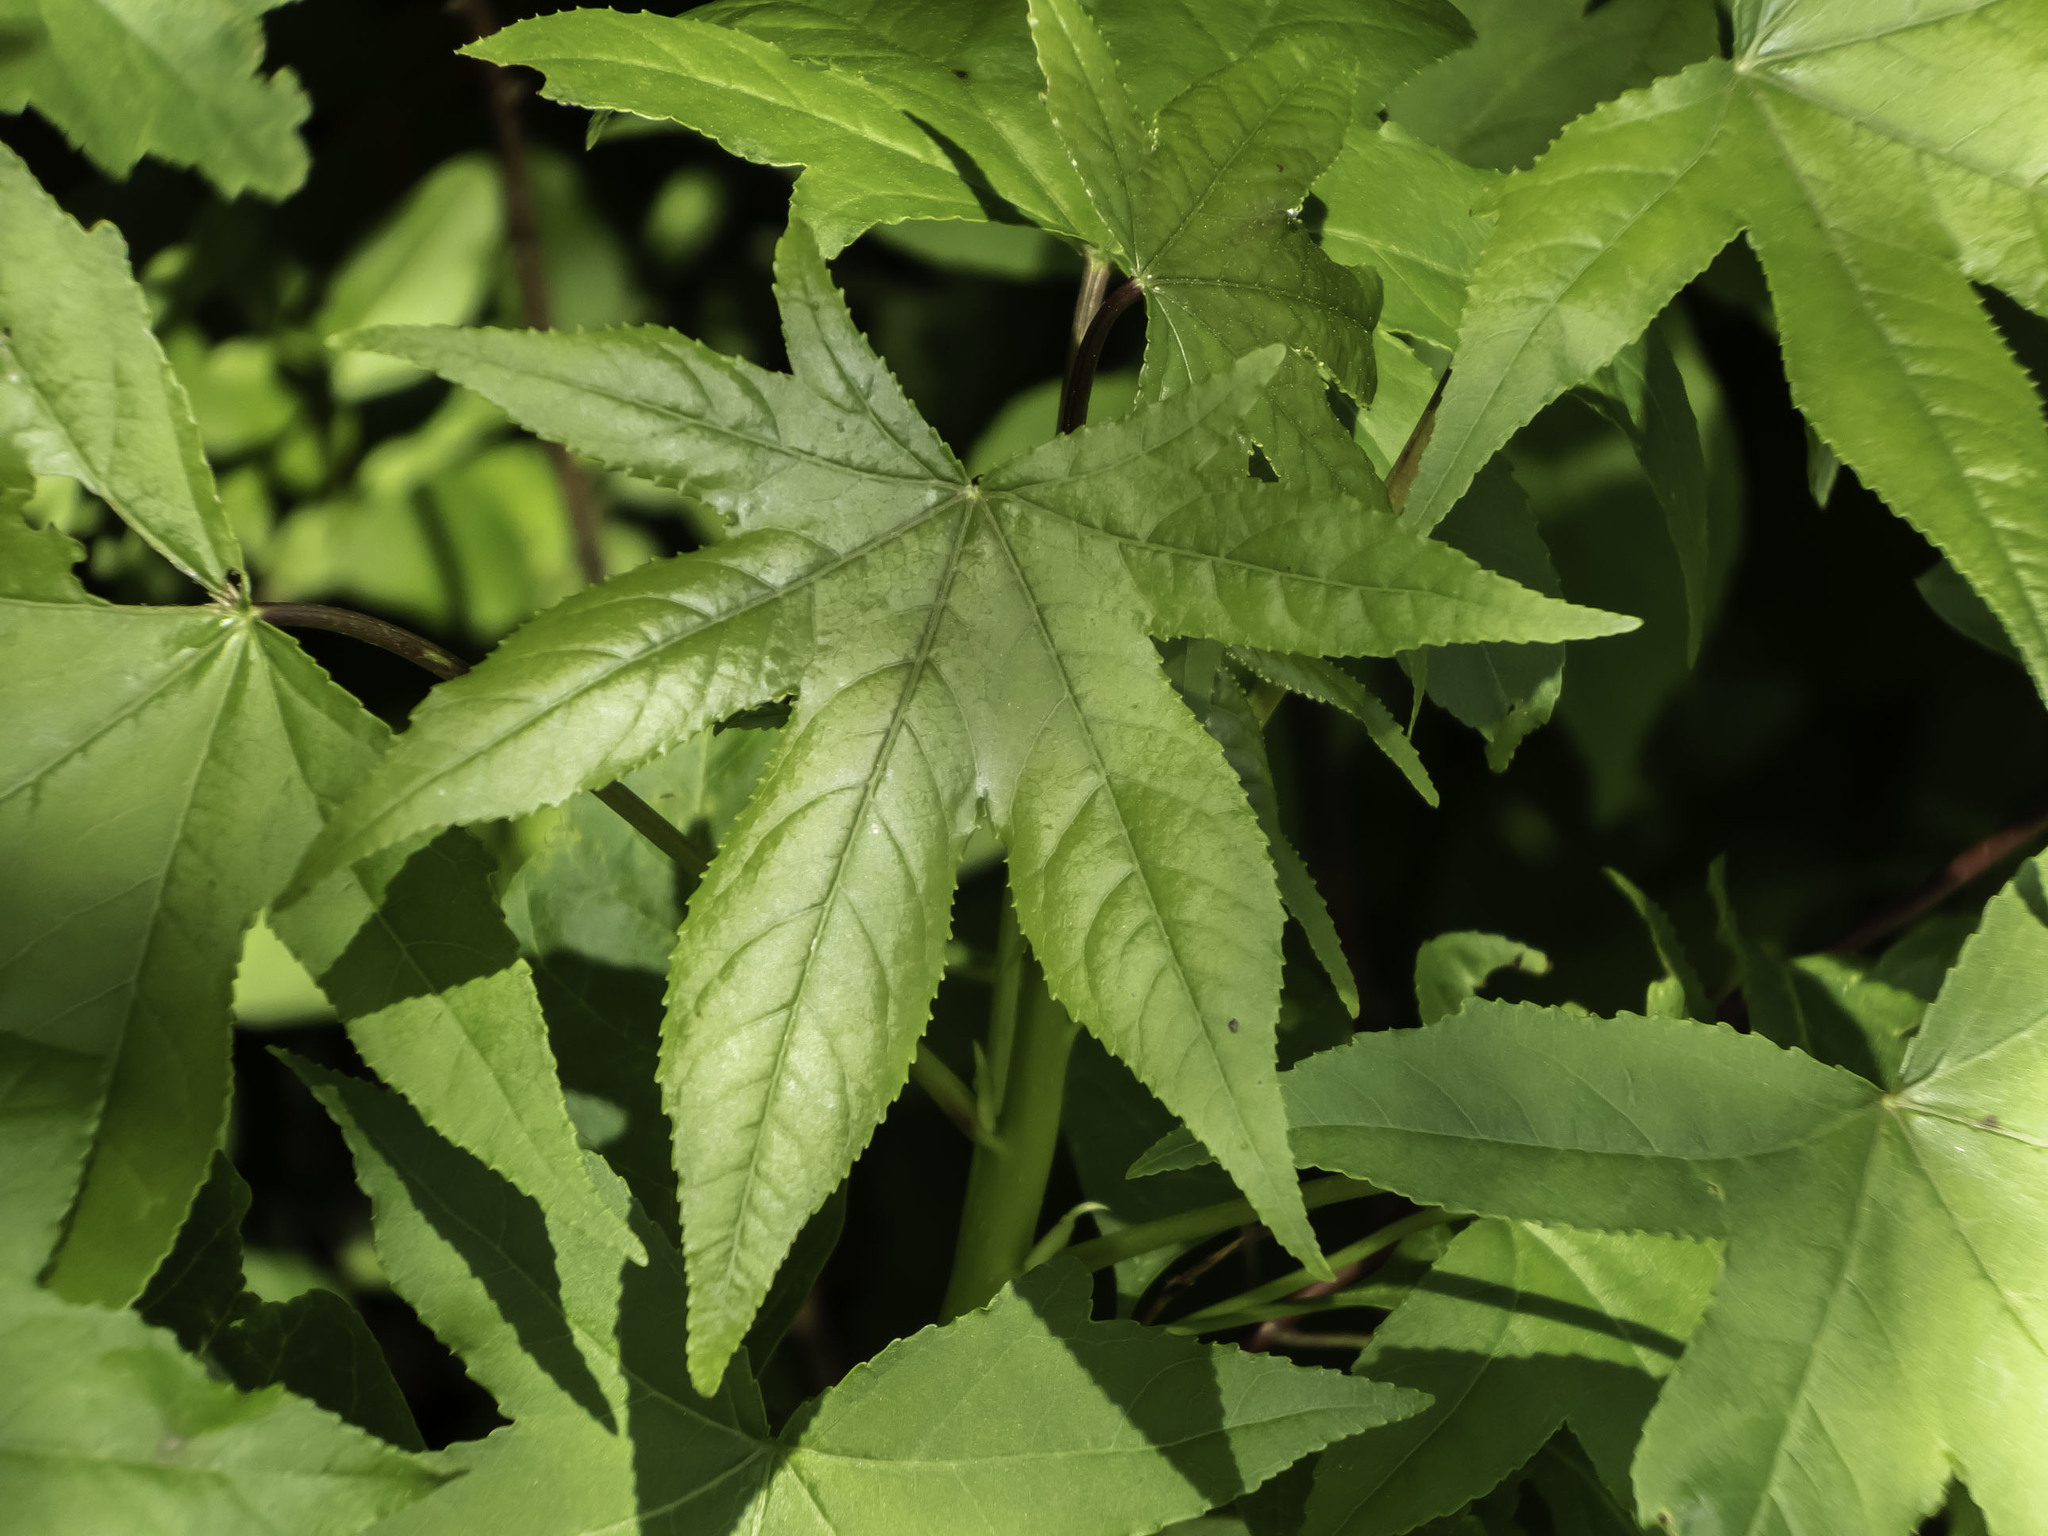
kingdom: Plantae
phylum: Tracheophyta
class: Magnoliopsida
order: Saxifragales
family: Altingiaceae
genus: Liquidambar
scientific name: Liquidambar styraciflua
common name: Sweet gum
